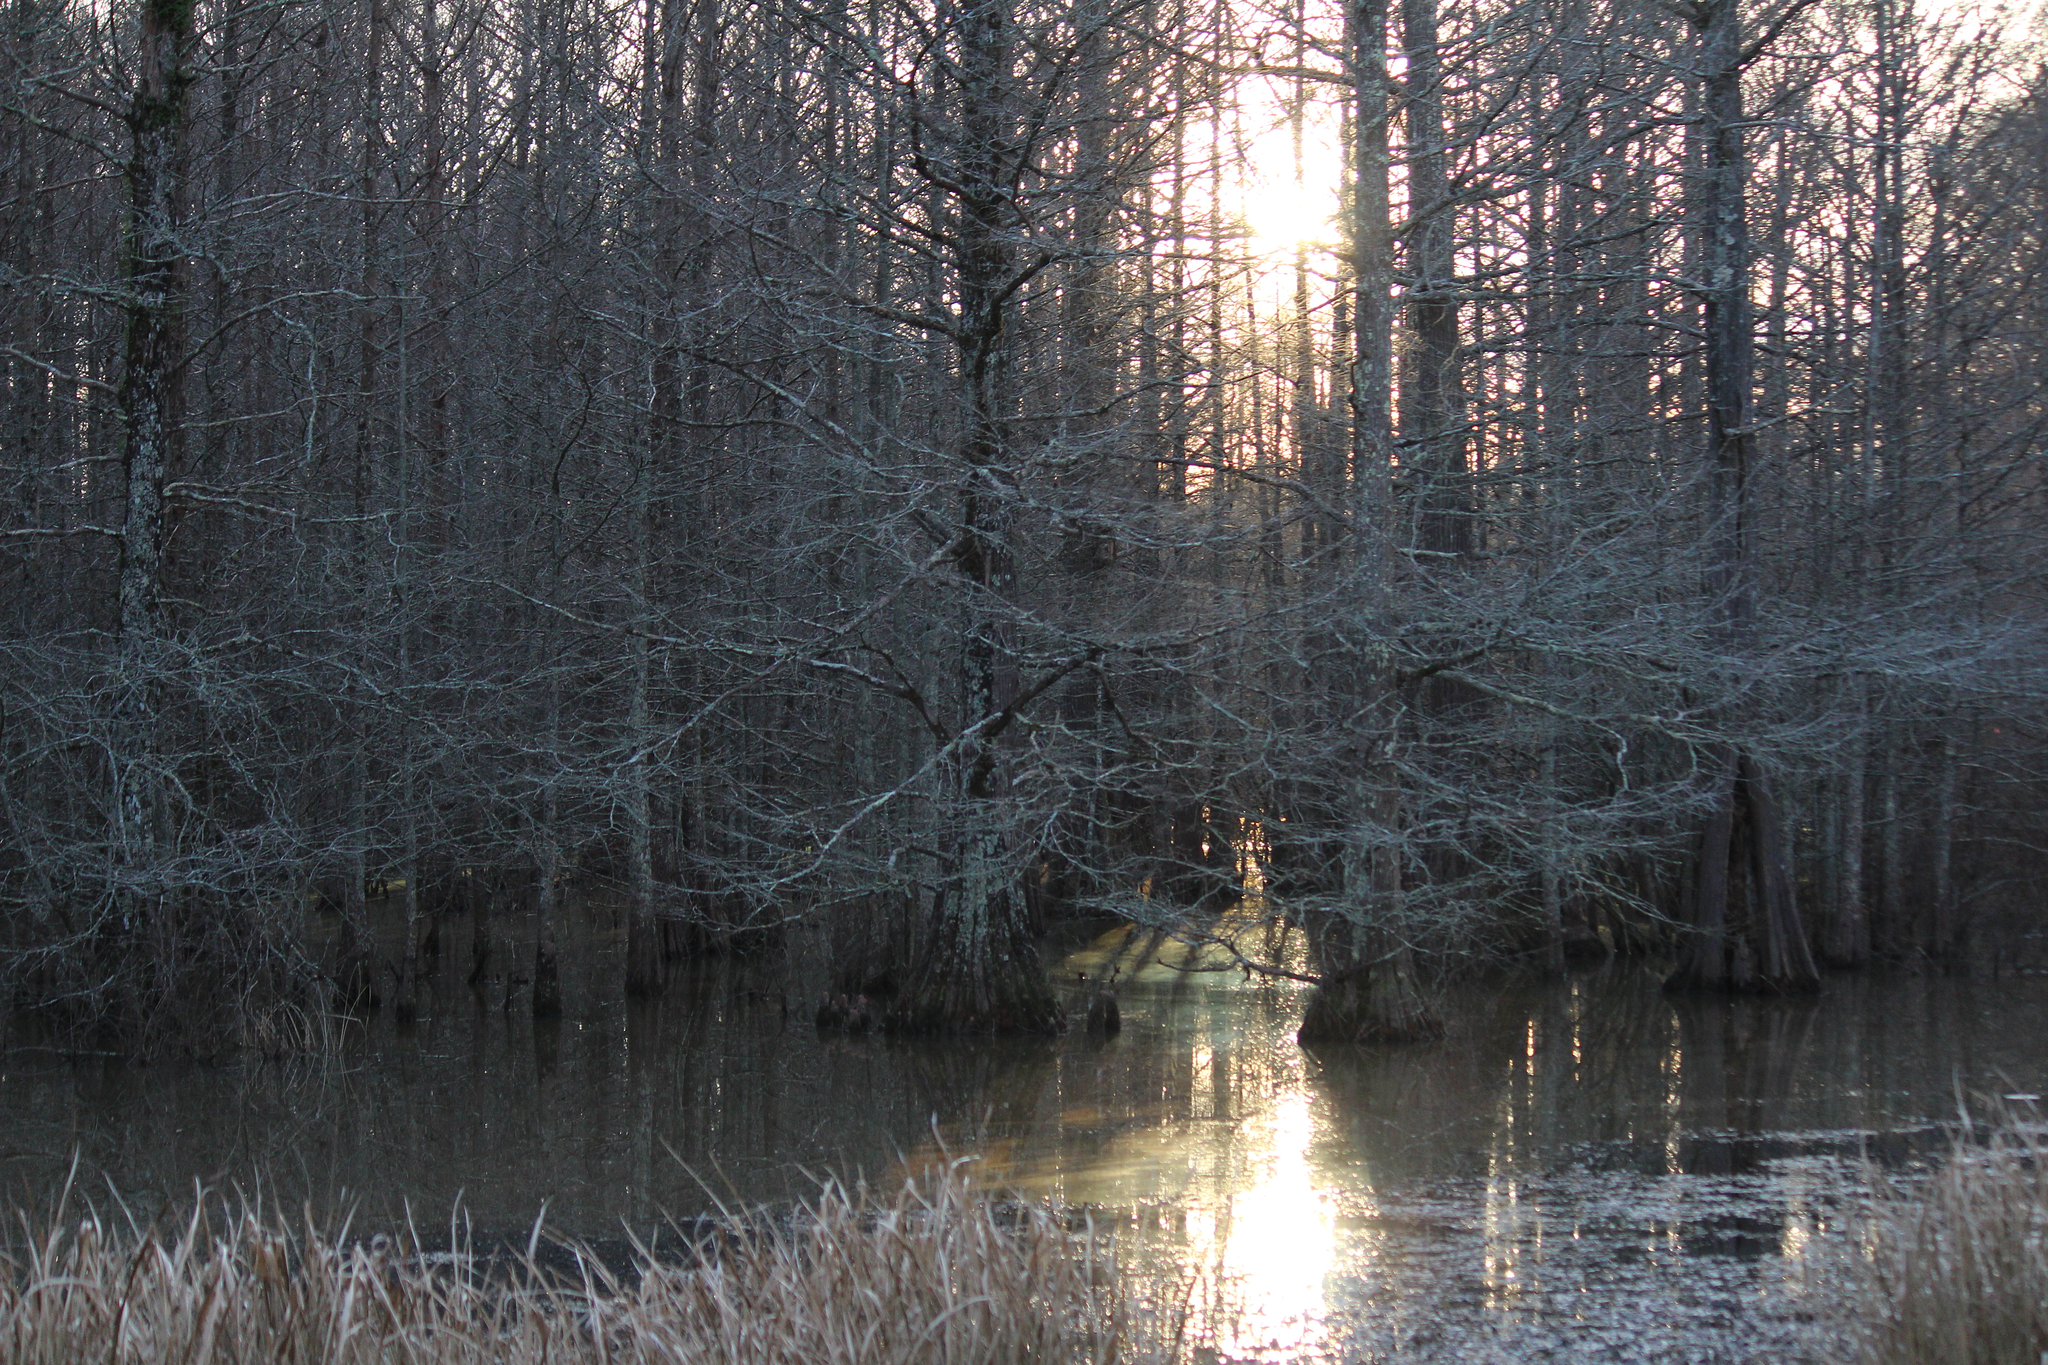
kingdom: Plantae
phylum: Tracheophyta
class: Pinopsida
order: Pinales
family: Cupressaceae
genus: Taxodium
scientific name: Taxodium distichum
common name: Bald cypress
